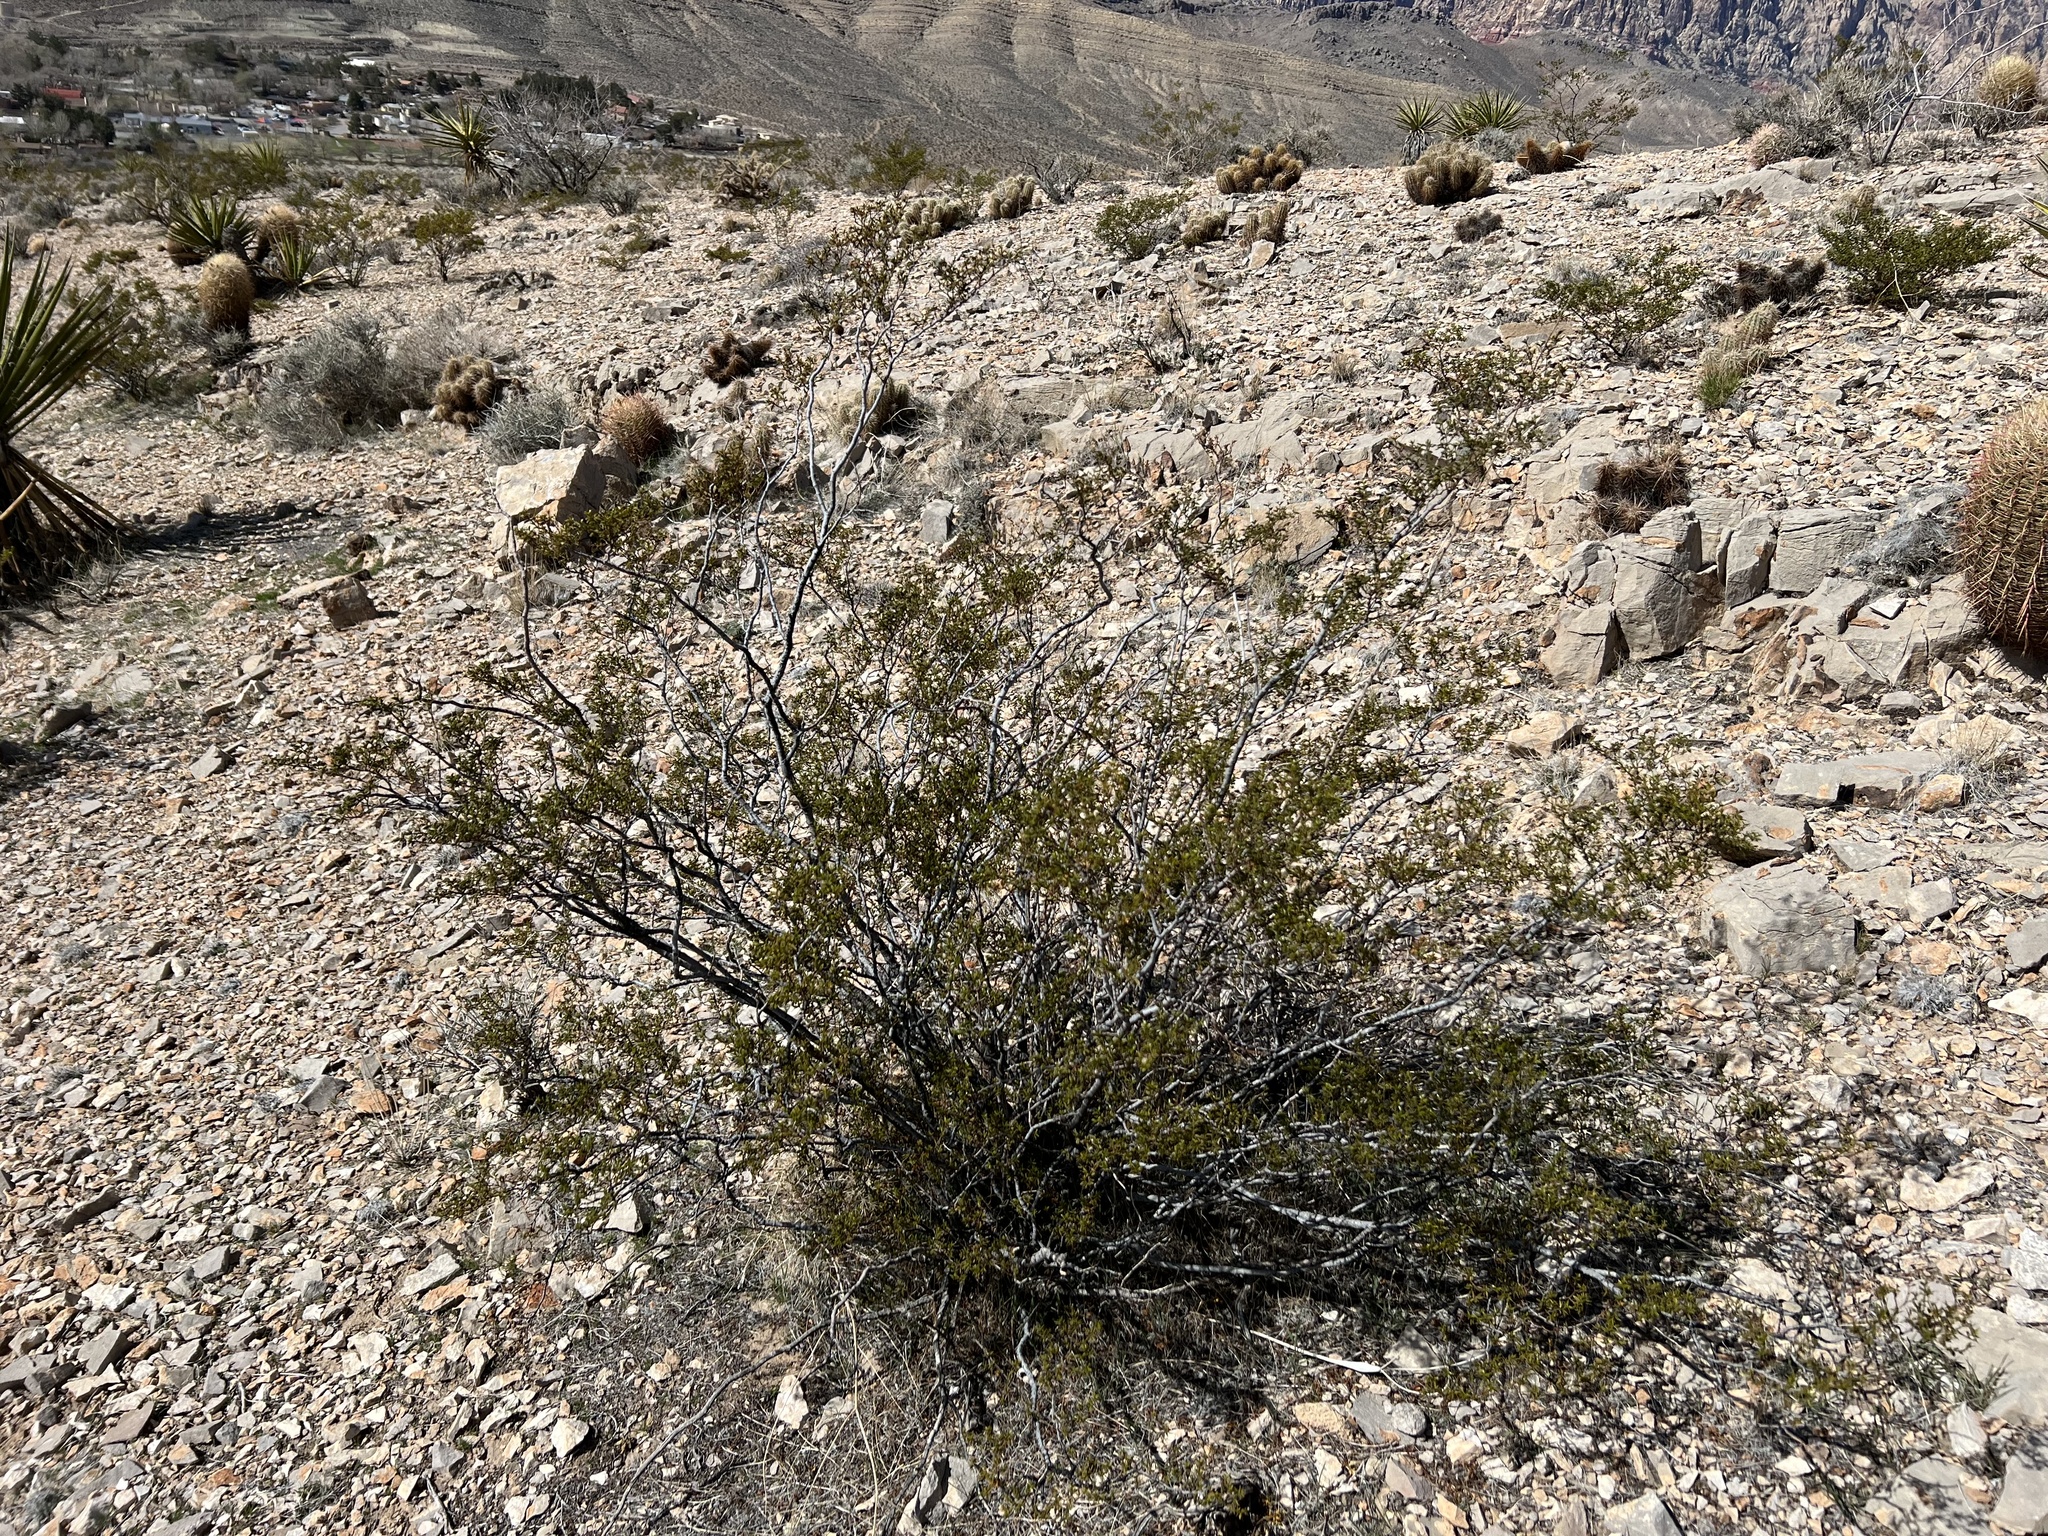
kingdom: Plantae
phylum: Tracheophyta
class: Magnoliopsida
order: Zygophyllales
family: Zygophyllaceae
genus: Larrea
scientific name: Larrea tridentata
